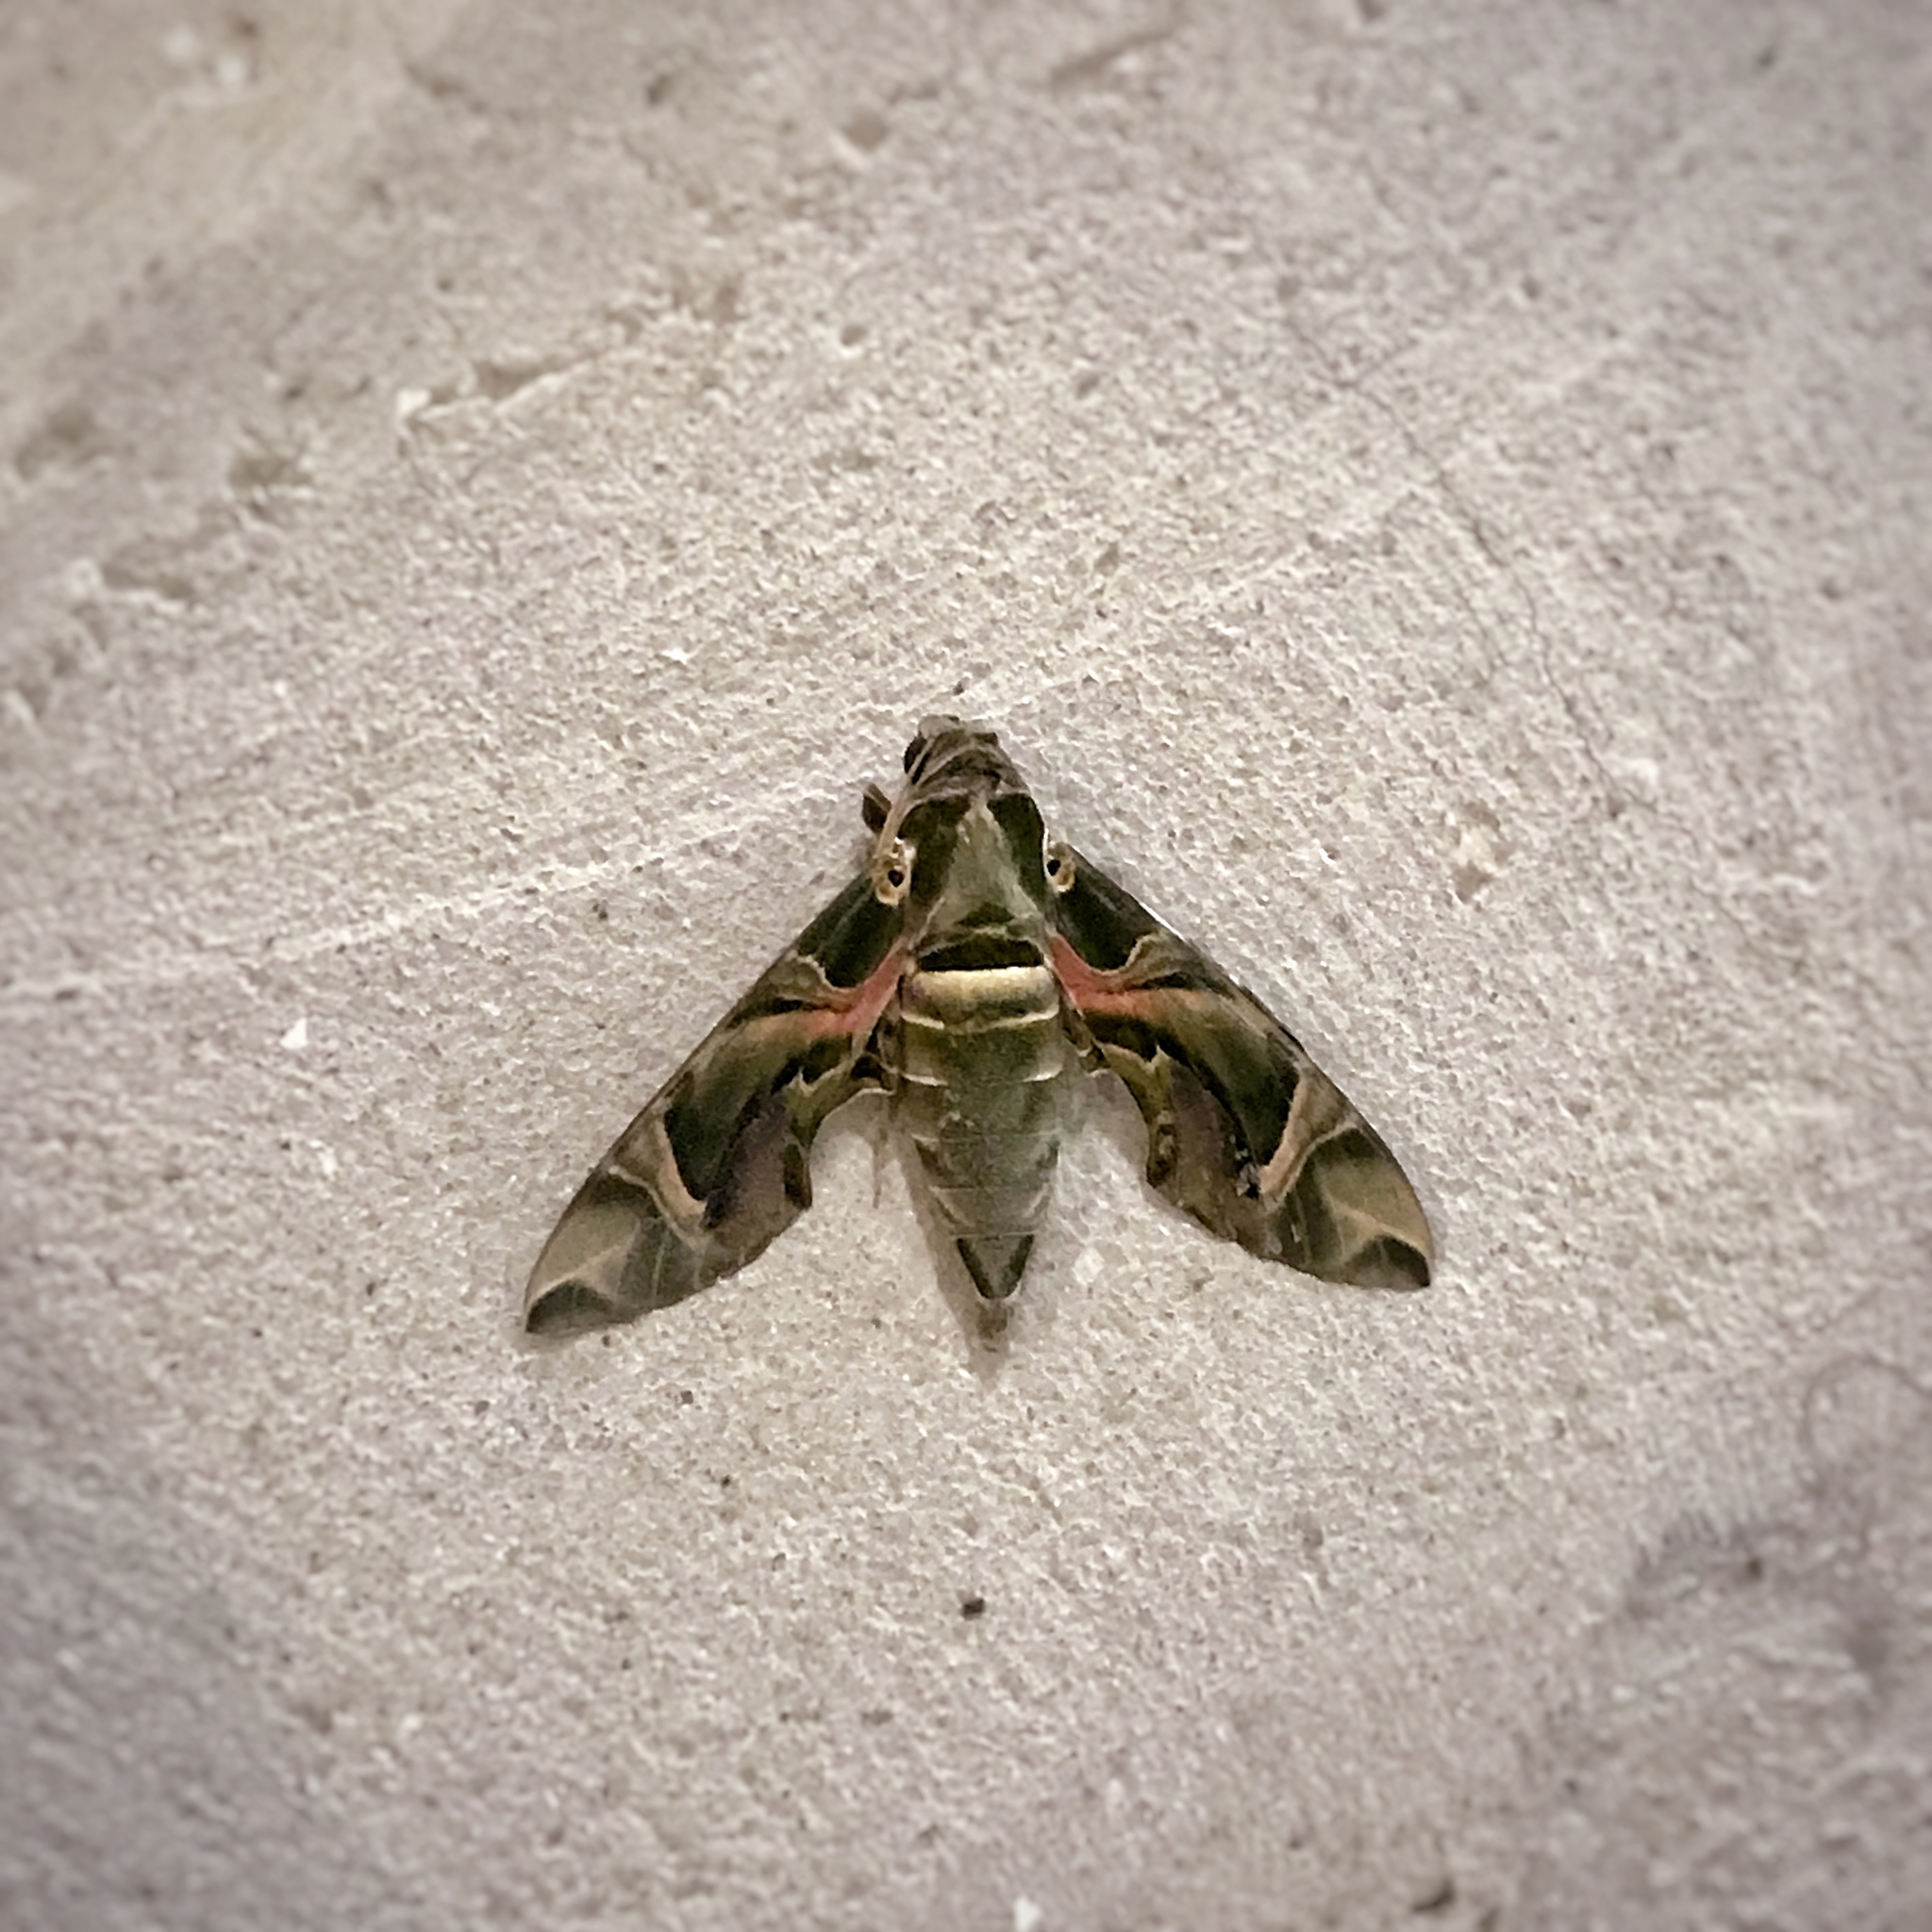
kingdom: Animalia
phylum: Arthropoda
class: Insecta
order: Lepidoptera
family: Sphingidae
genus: Daphnis
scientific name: Daphnis nerii
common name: Oleander hawk-moth
